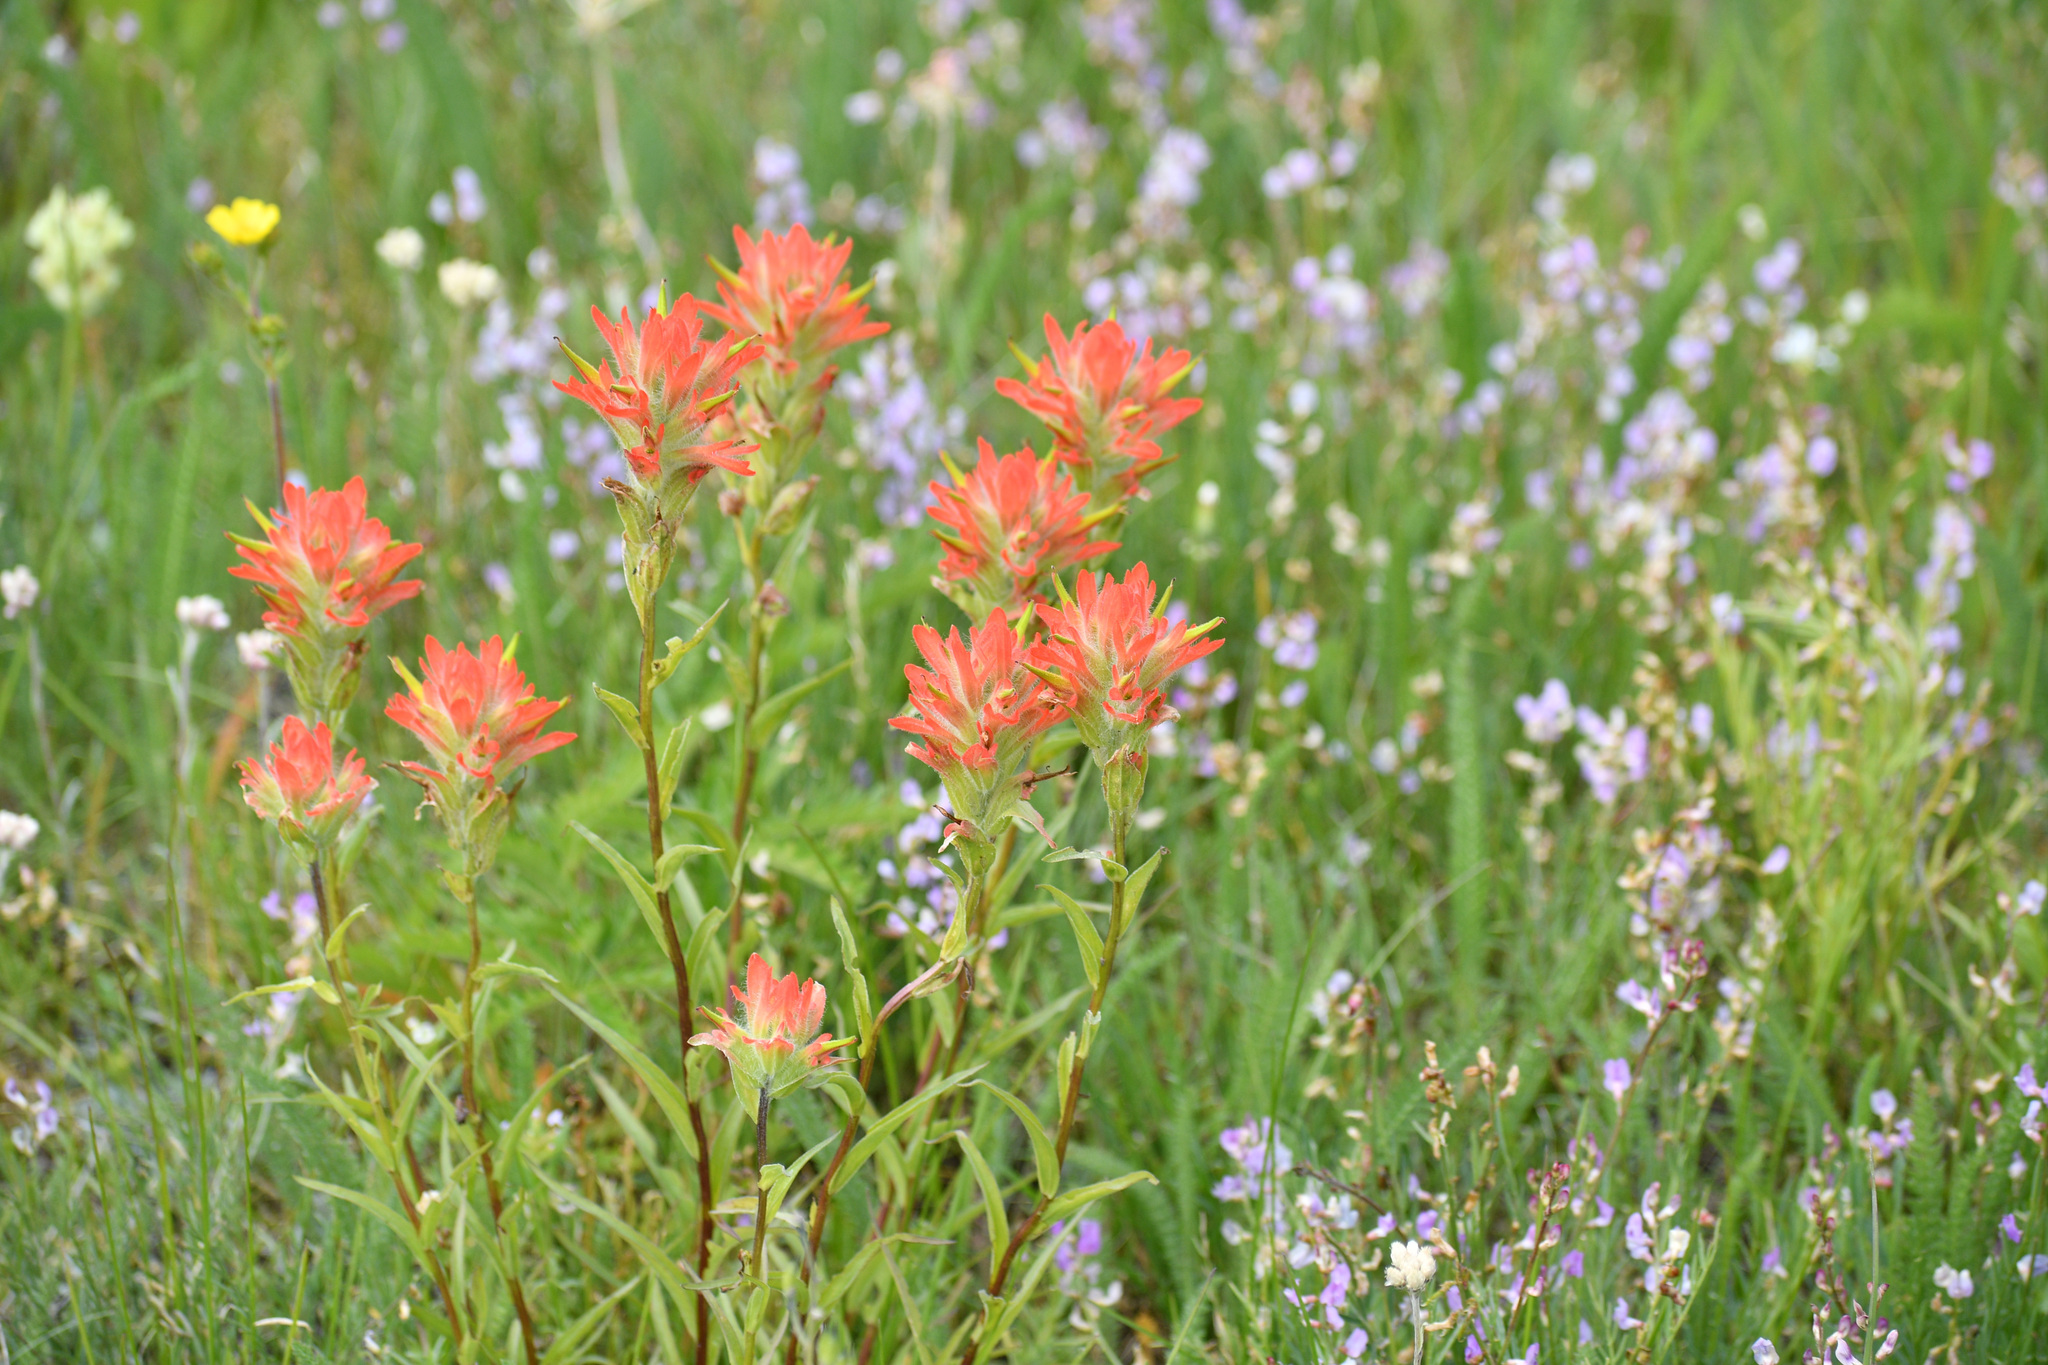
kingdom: Plantae
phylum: Tracheophyta
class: Magnoliopsida
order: Lamiales
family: Orobanchaceae
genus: Castilleja
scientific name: Castilleja miniata
